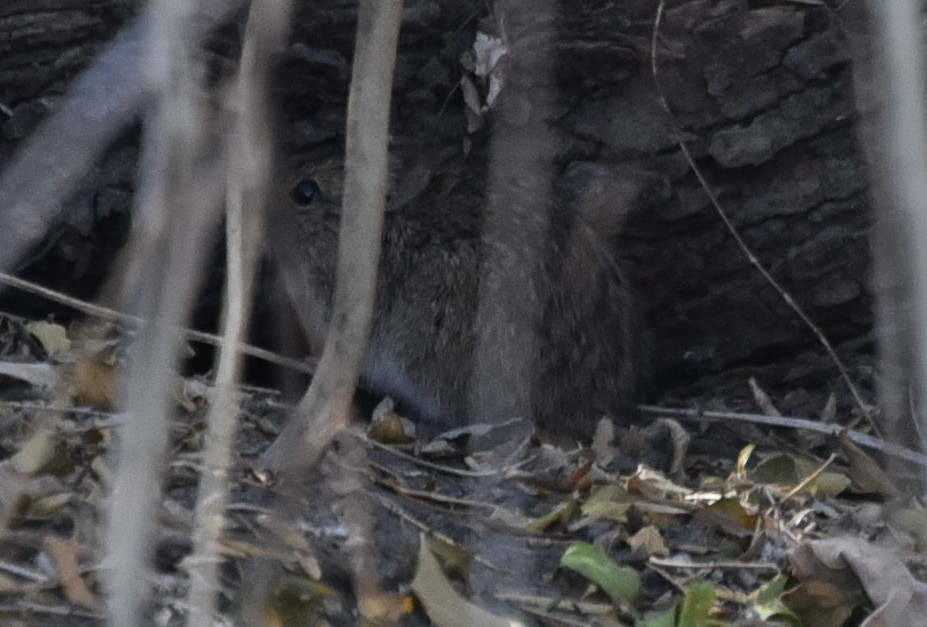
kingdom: Animalia
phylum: Chordata
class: Mammalia
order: Rodentia
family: Cricetidae
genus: Sigmodon
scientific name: Sigmodon hispidus
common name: Hispid cotton rat
